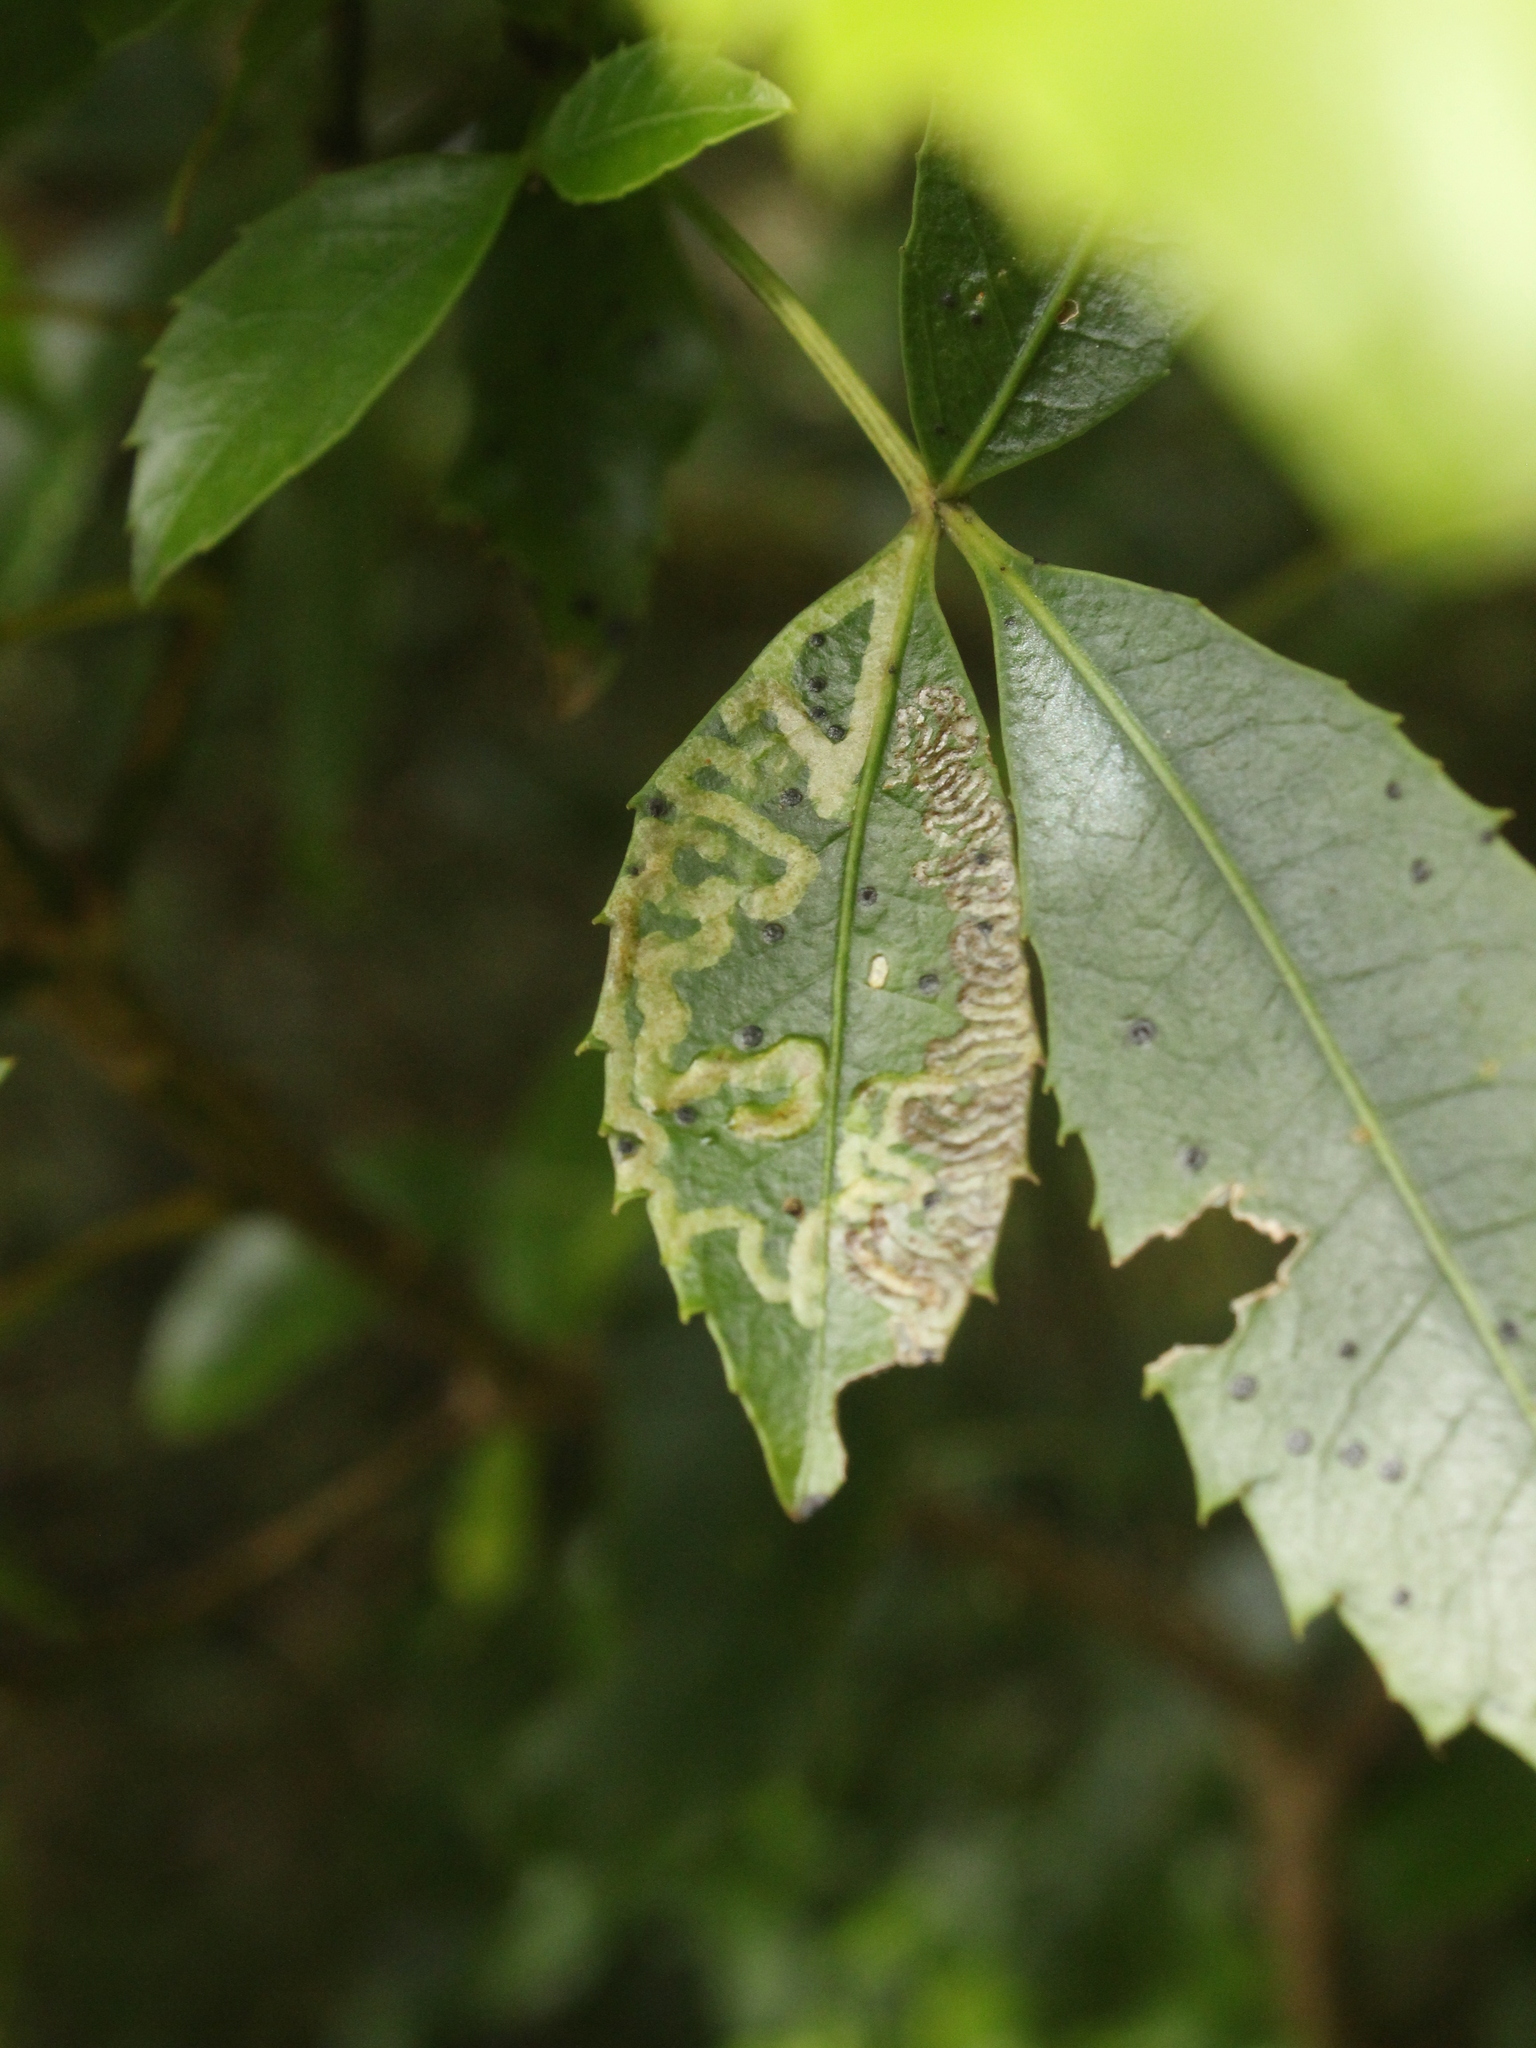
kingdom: Animalia
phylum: Arthropoda
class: Insecta
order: Lepidoptera
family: Gracillariidae
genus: Eumetriochroa
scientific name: Eumetriochroa panacivermiforma
